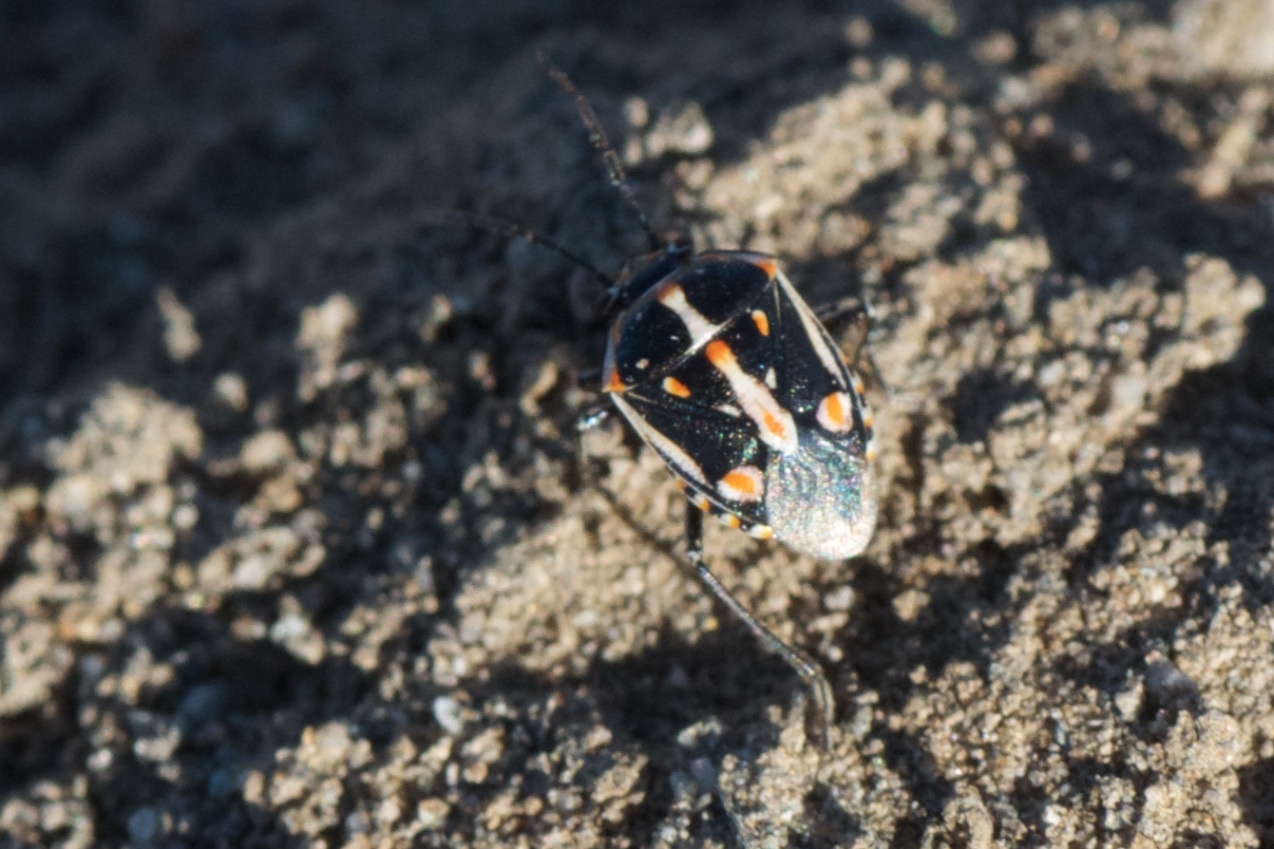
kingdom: Animalia
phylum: Arthropoda
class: Insecta
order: Hemiptera
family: Pentatomidae
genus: Bagrada
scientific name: Bagrada hilaris
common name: Bagrada bug
